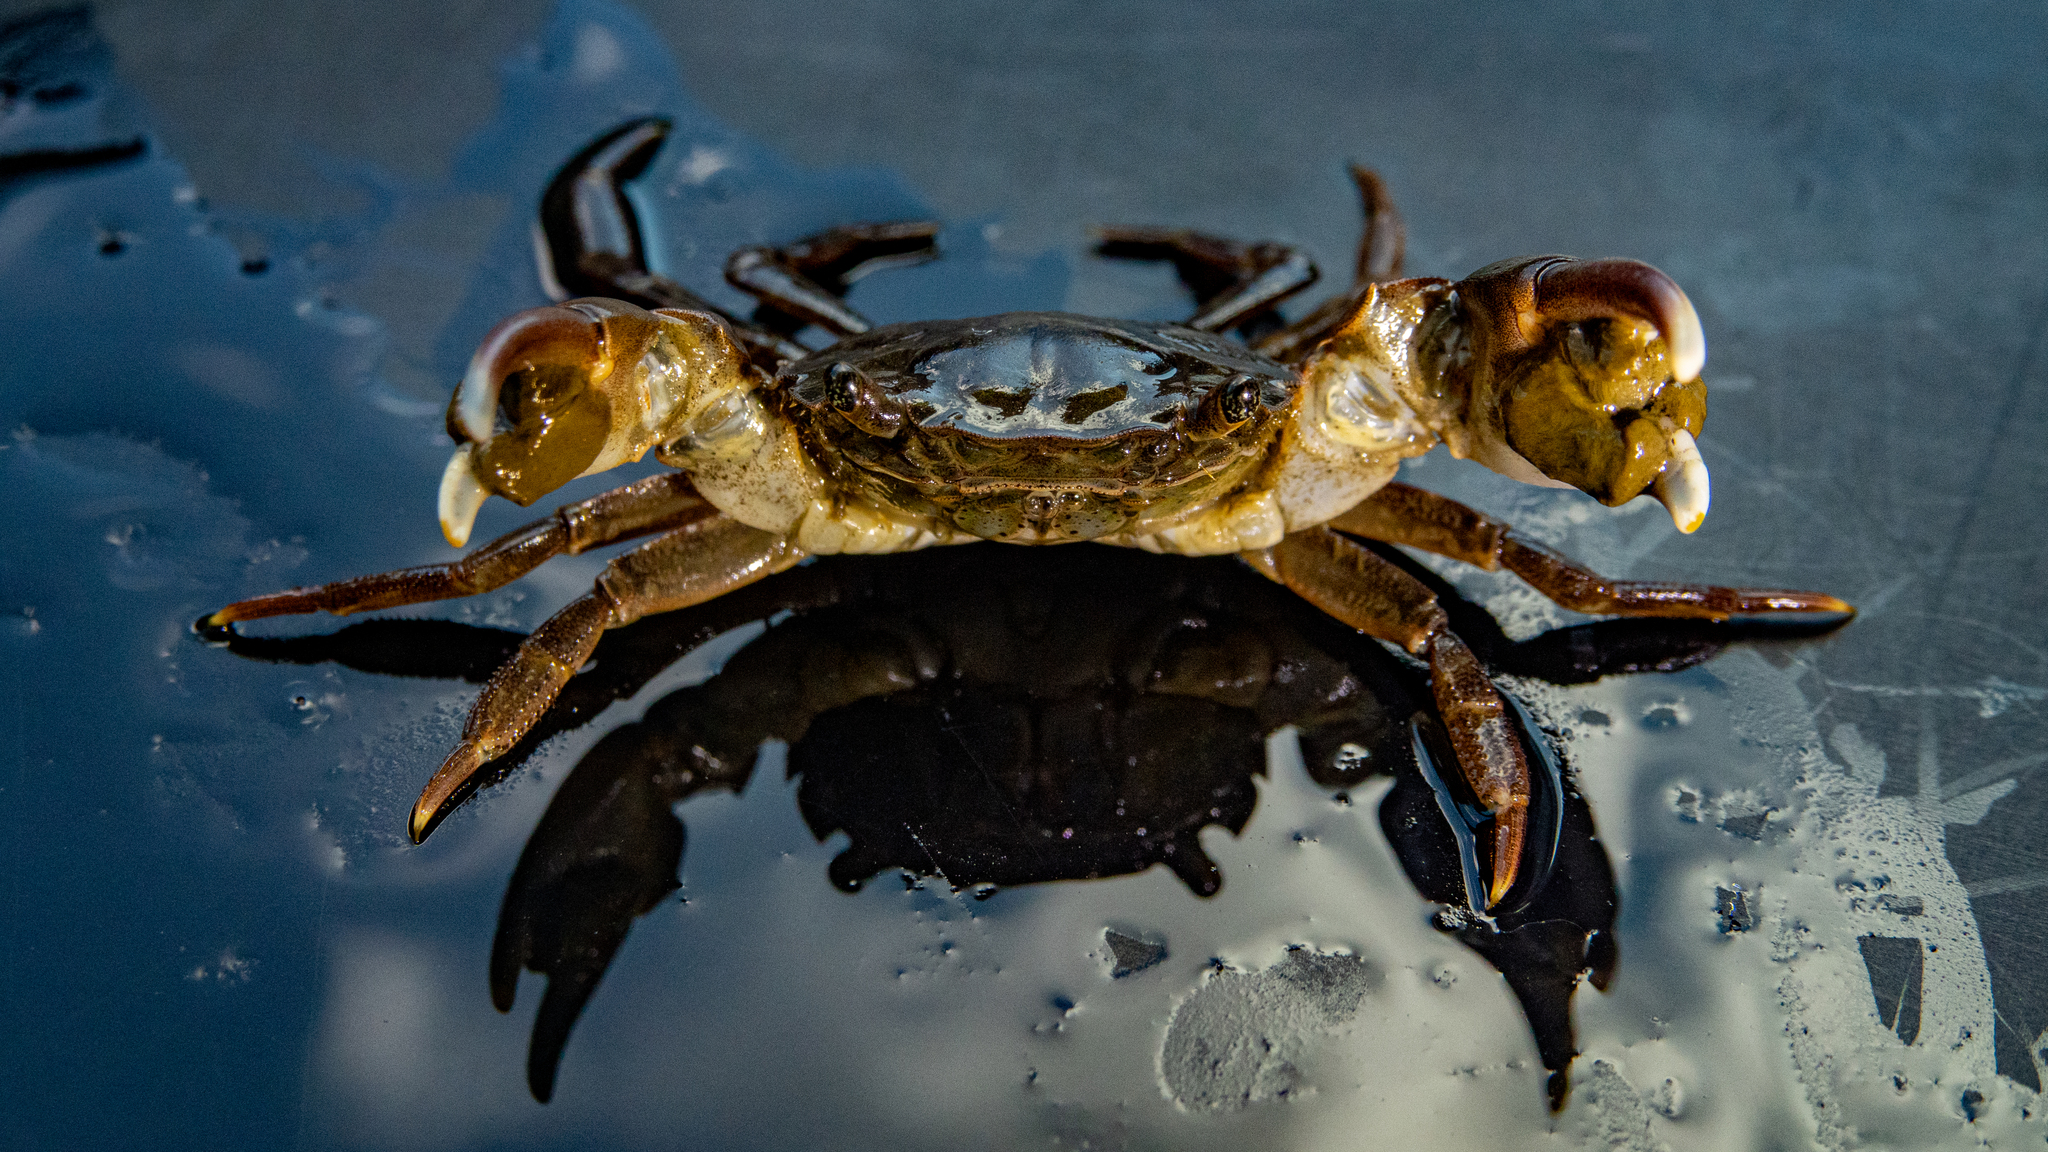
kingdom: Animalia
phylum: Arthropoda
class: Malacostraca
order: Decapoda
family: Varunidae
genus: Hemigrapsus
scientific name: Hemigrapsus takanoi
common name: Asian brush crab
